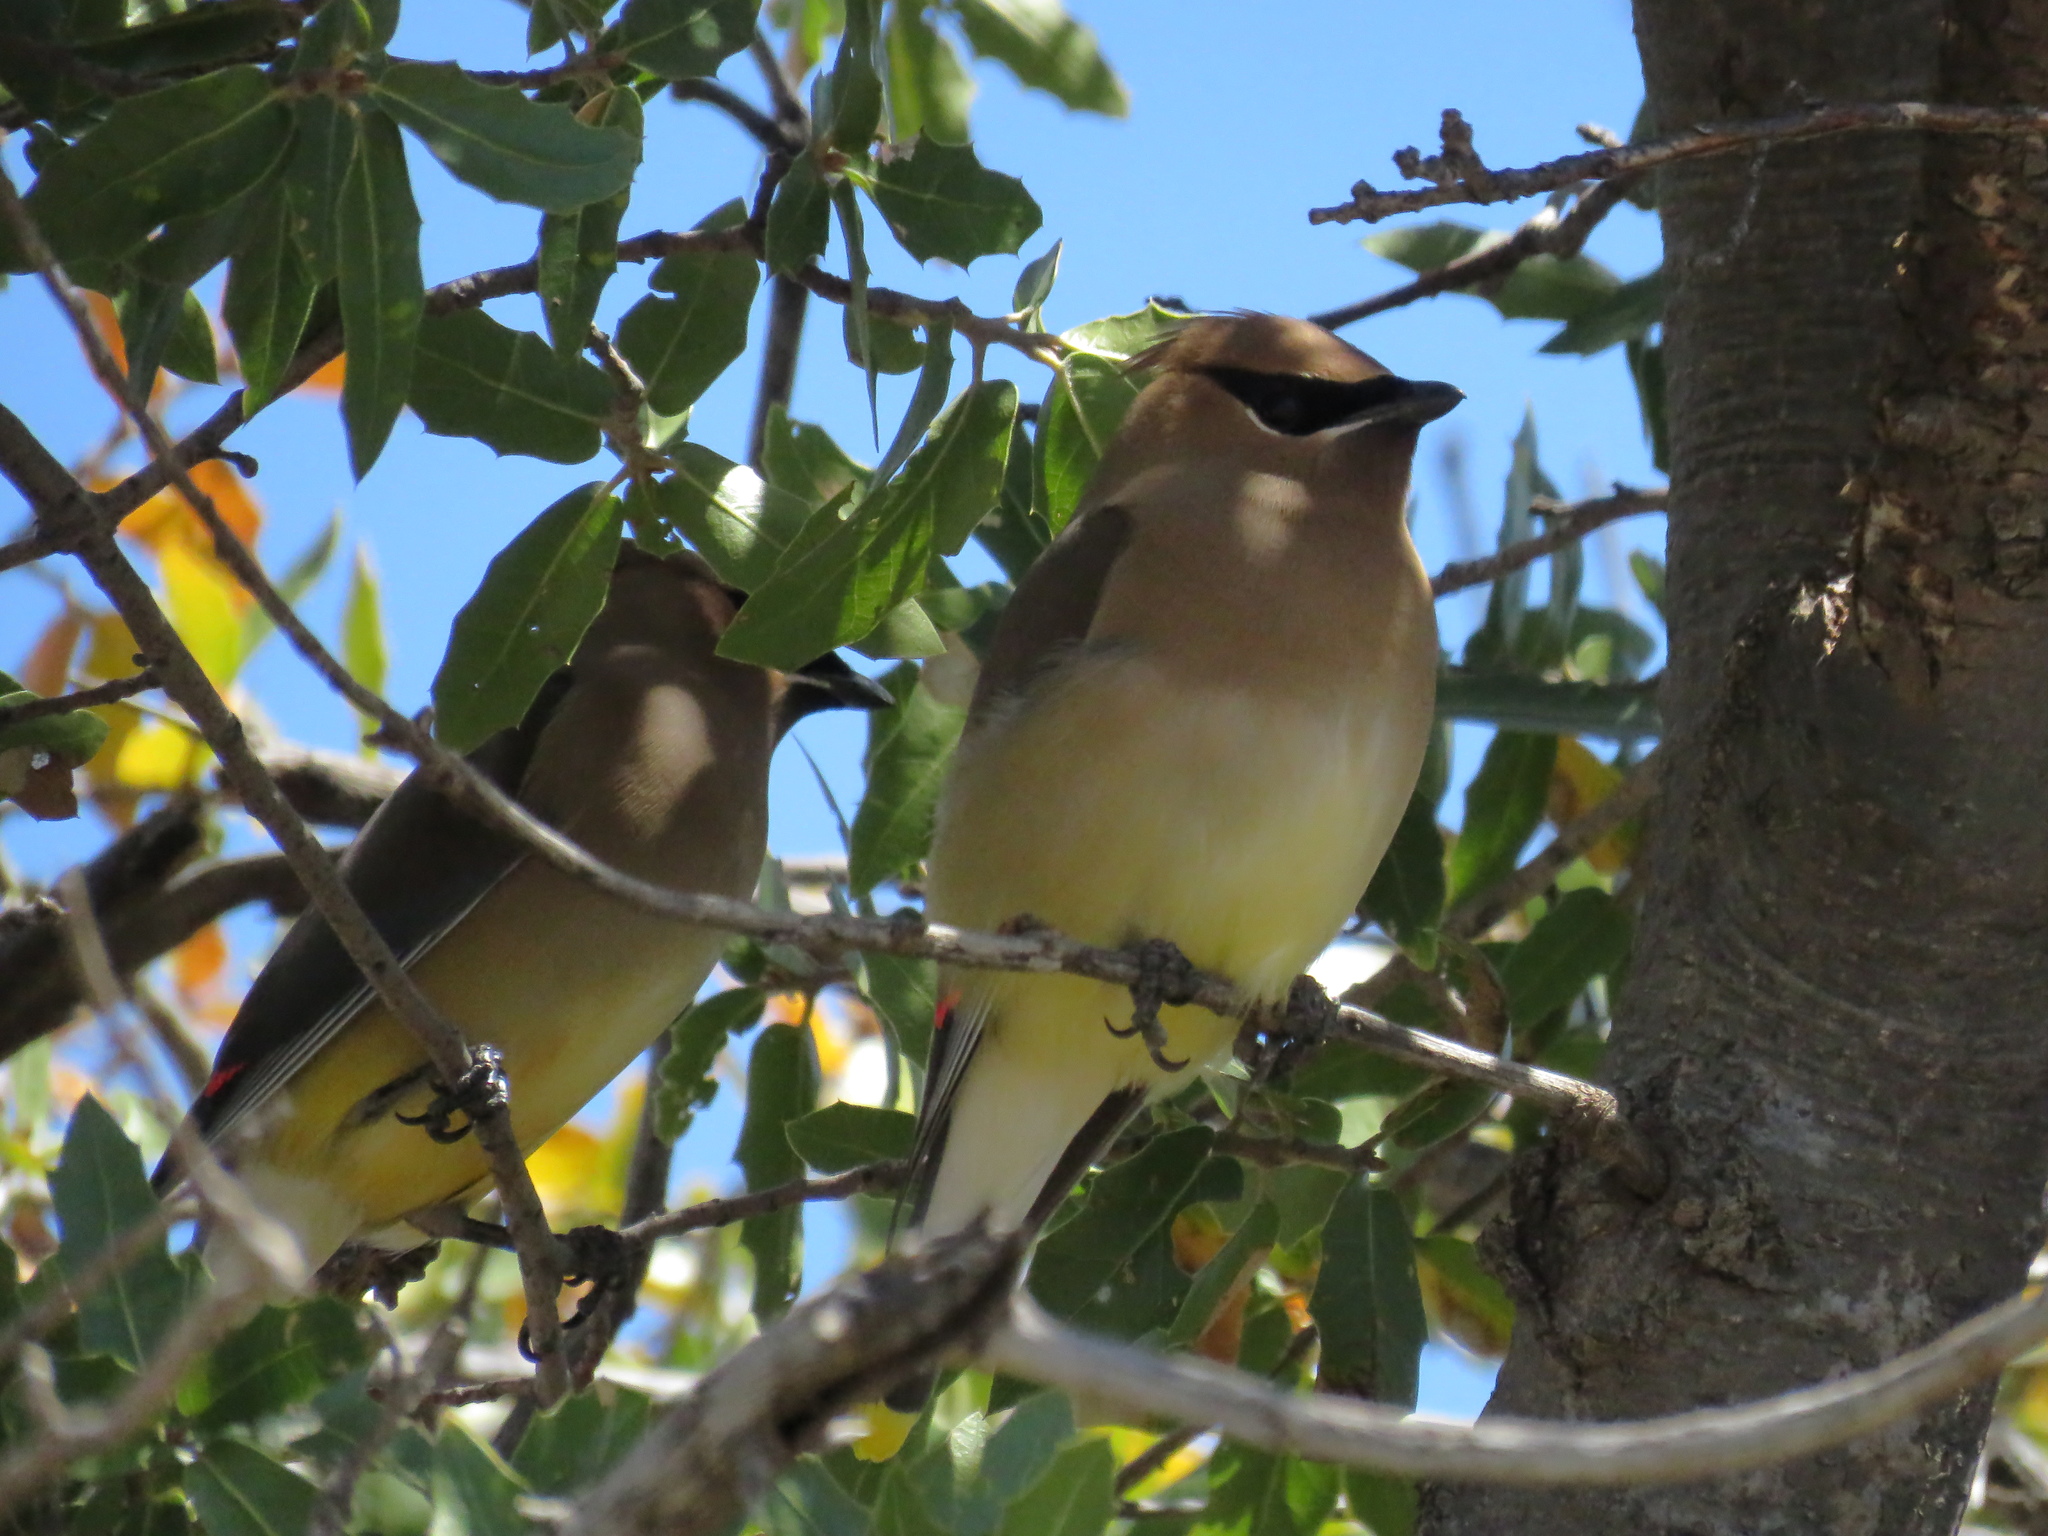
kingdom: Animalia
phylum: Chordata
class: Aves
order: Passeriformes
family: Bombycillidae
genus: Bombycilla
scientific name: Bombycilla cedrorum
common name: Cedar waxwing
